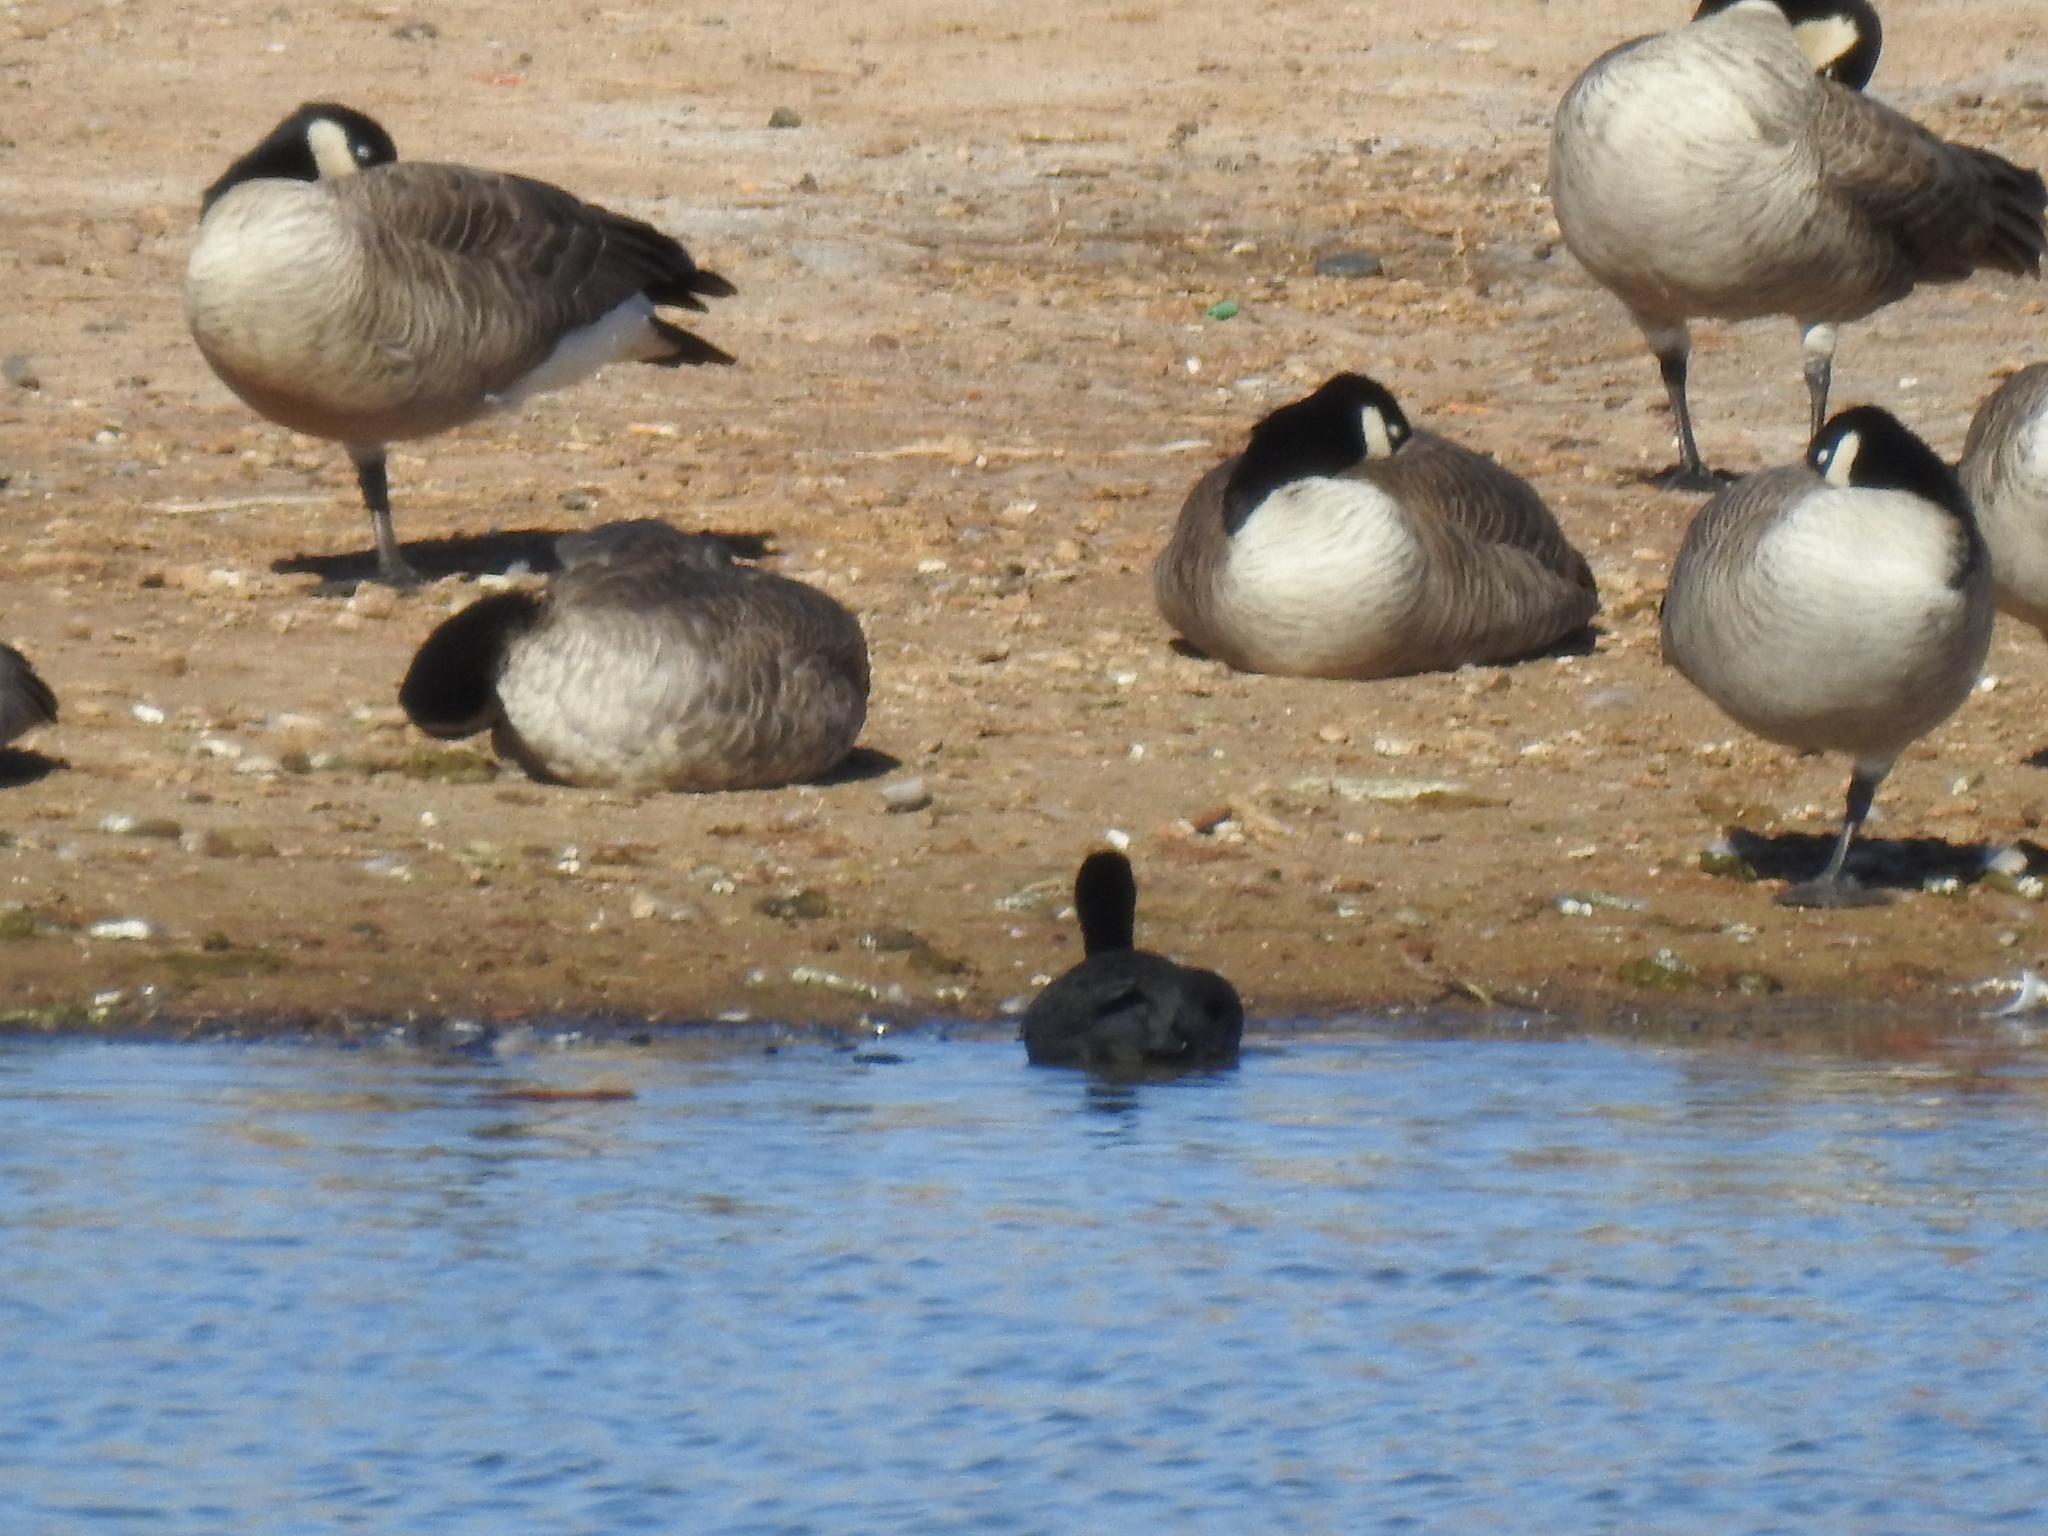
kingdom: Animalia
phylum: Chordata
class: Aves
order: Anseriformes
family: Anatidae
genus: Branta
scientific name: Branta canadensis
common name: Canada goose
